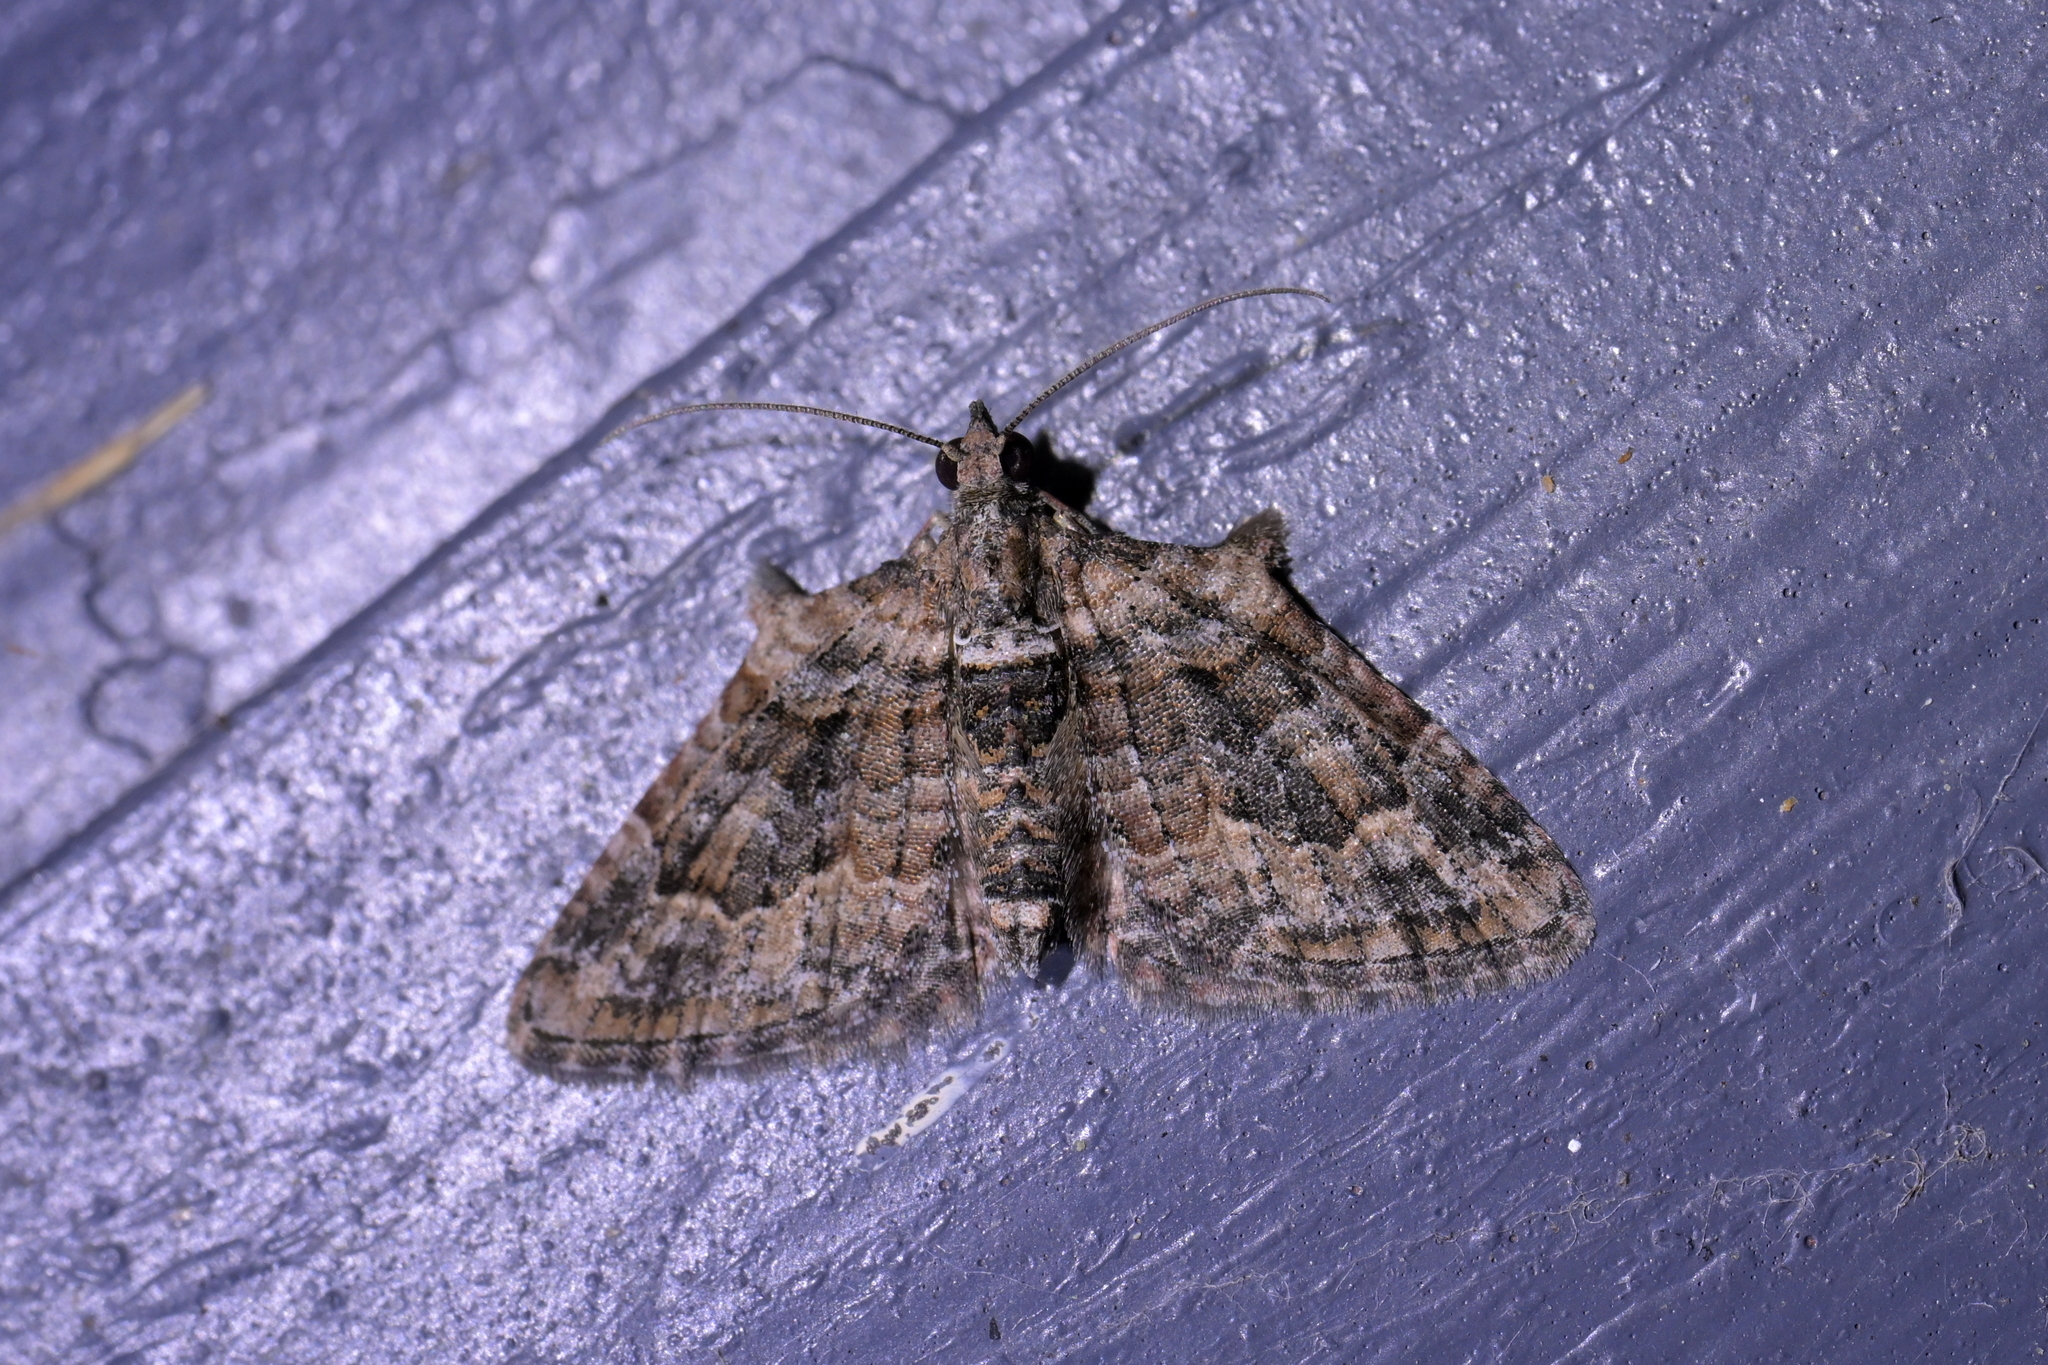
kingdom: Animalia
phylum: Arthropoda
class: Insecta
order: Lepidoptera
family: Geometridae
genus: Phrissogonus
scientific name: Phrissogonus laticostata
